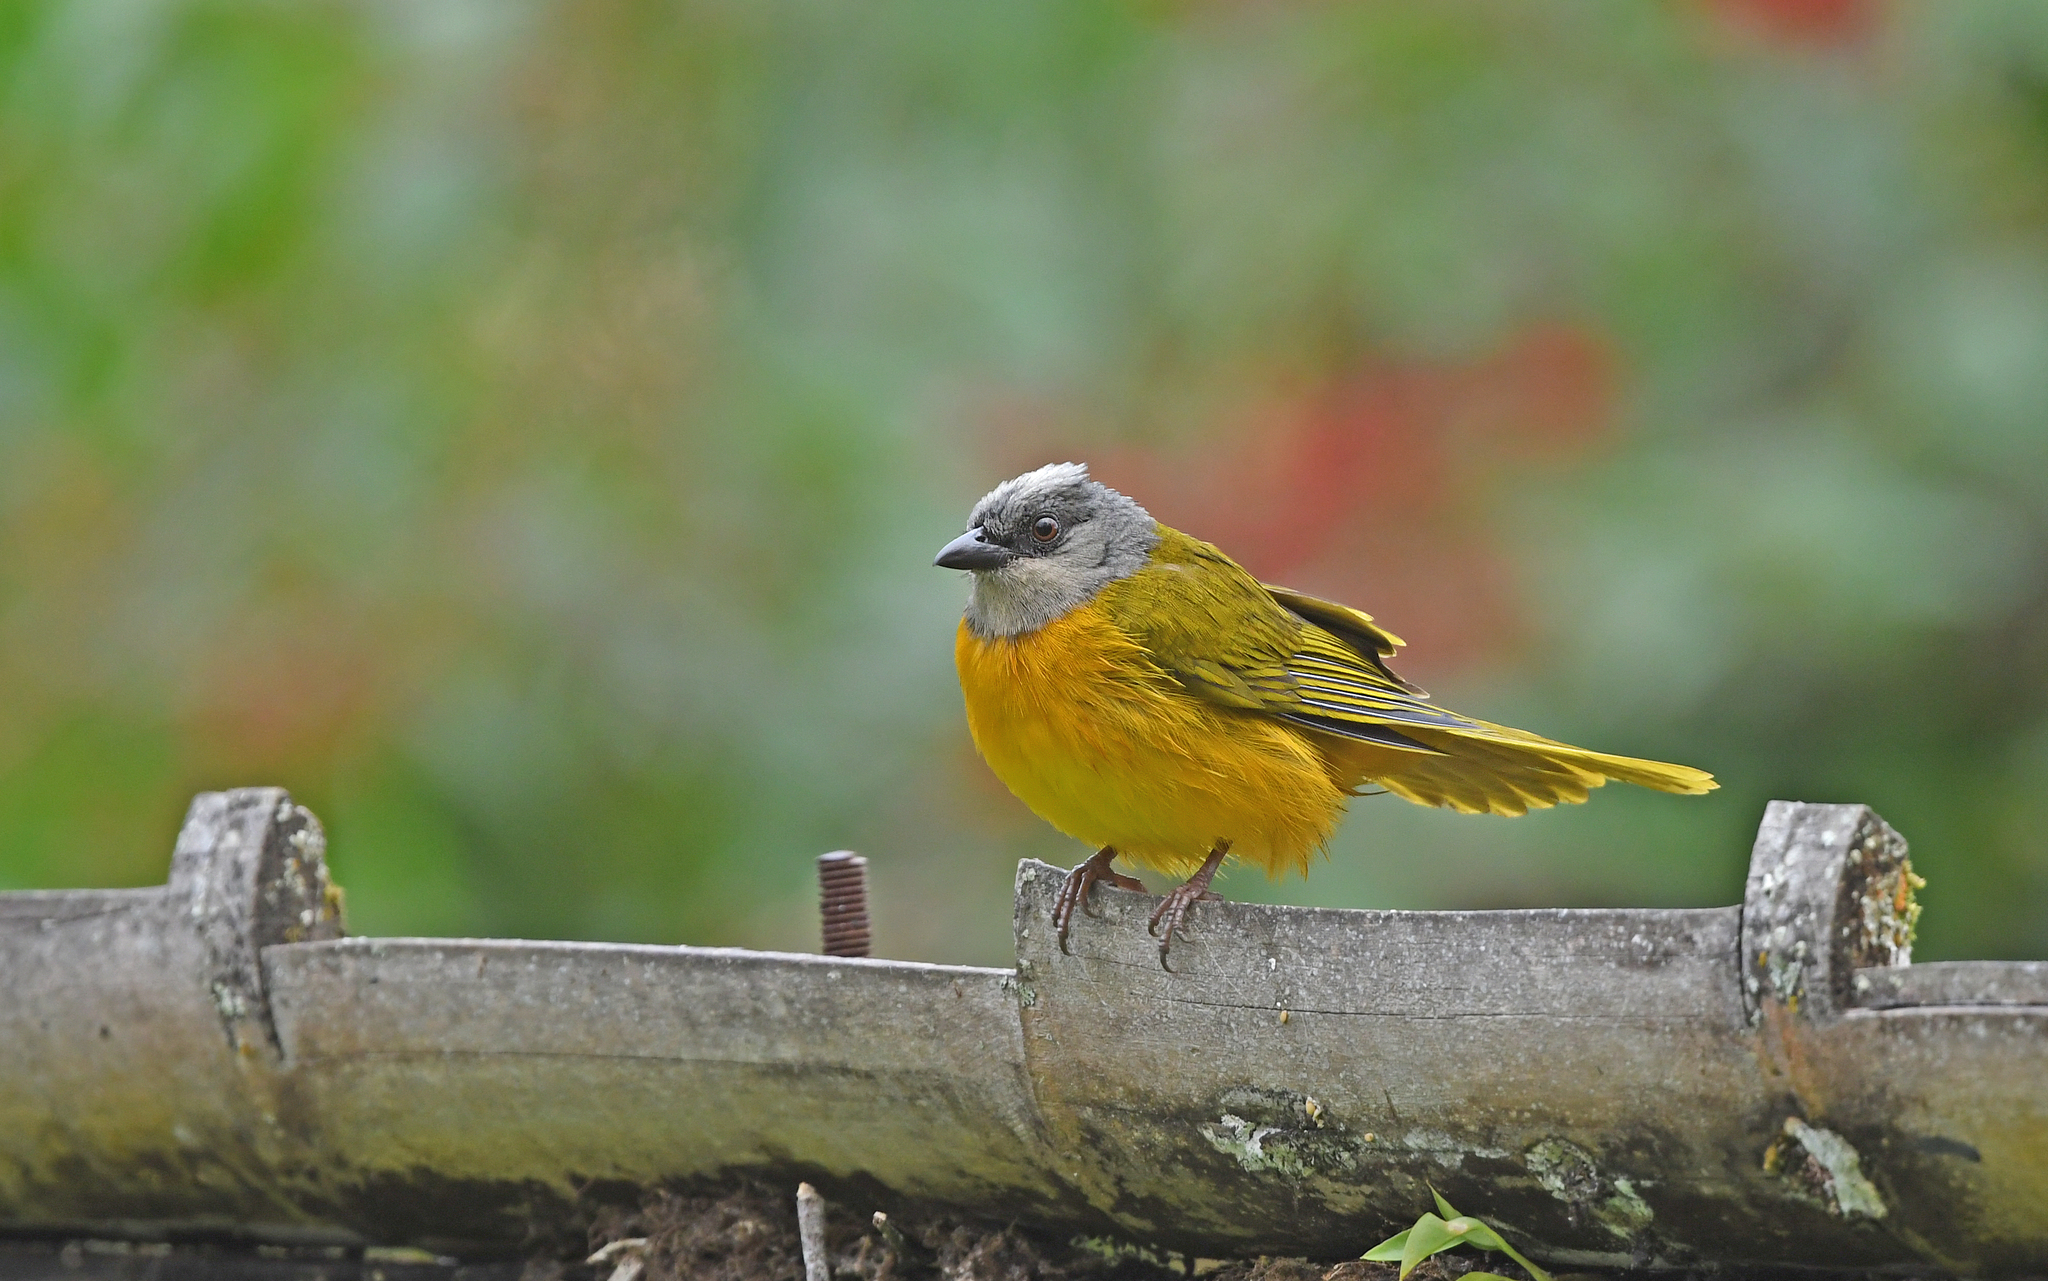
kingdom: Animalia
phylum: Chordata
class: Aves
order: Passeriformes
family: Thraupidae
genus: Eucometis
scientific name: Eucometis penicillata
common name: Grey-headed tanager
